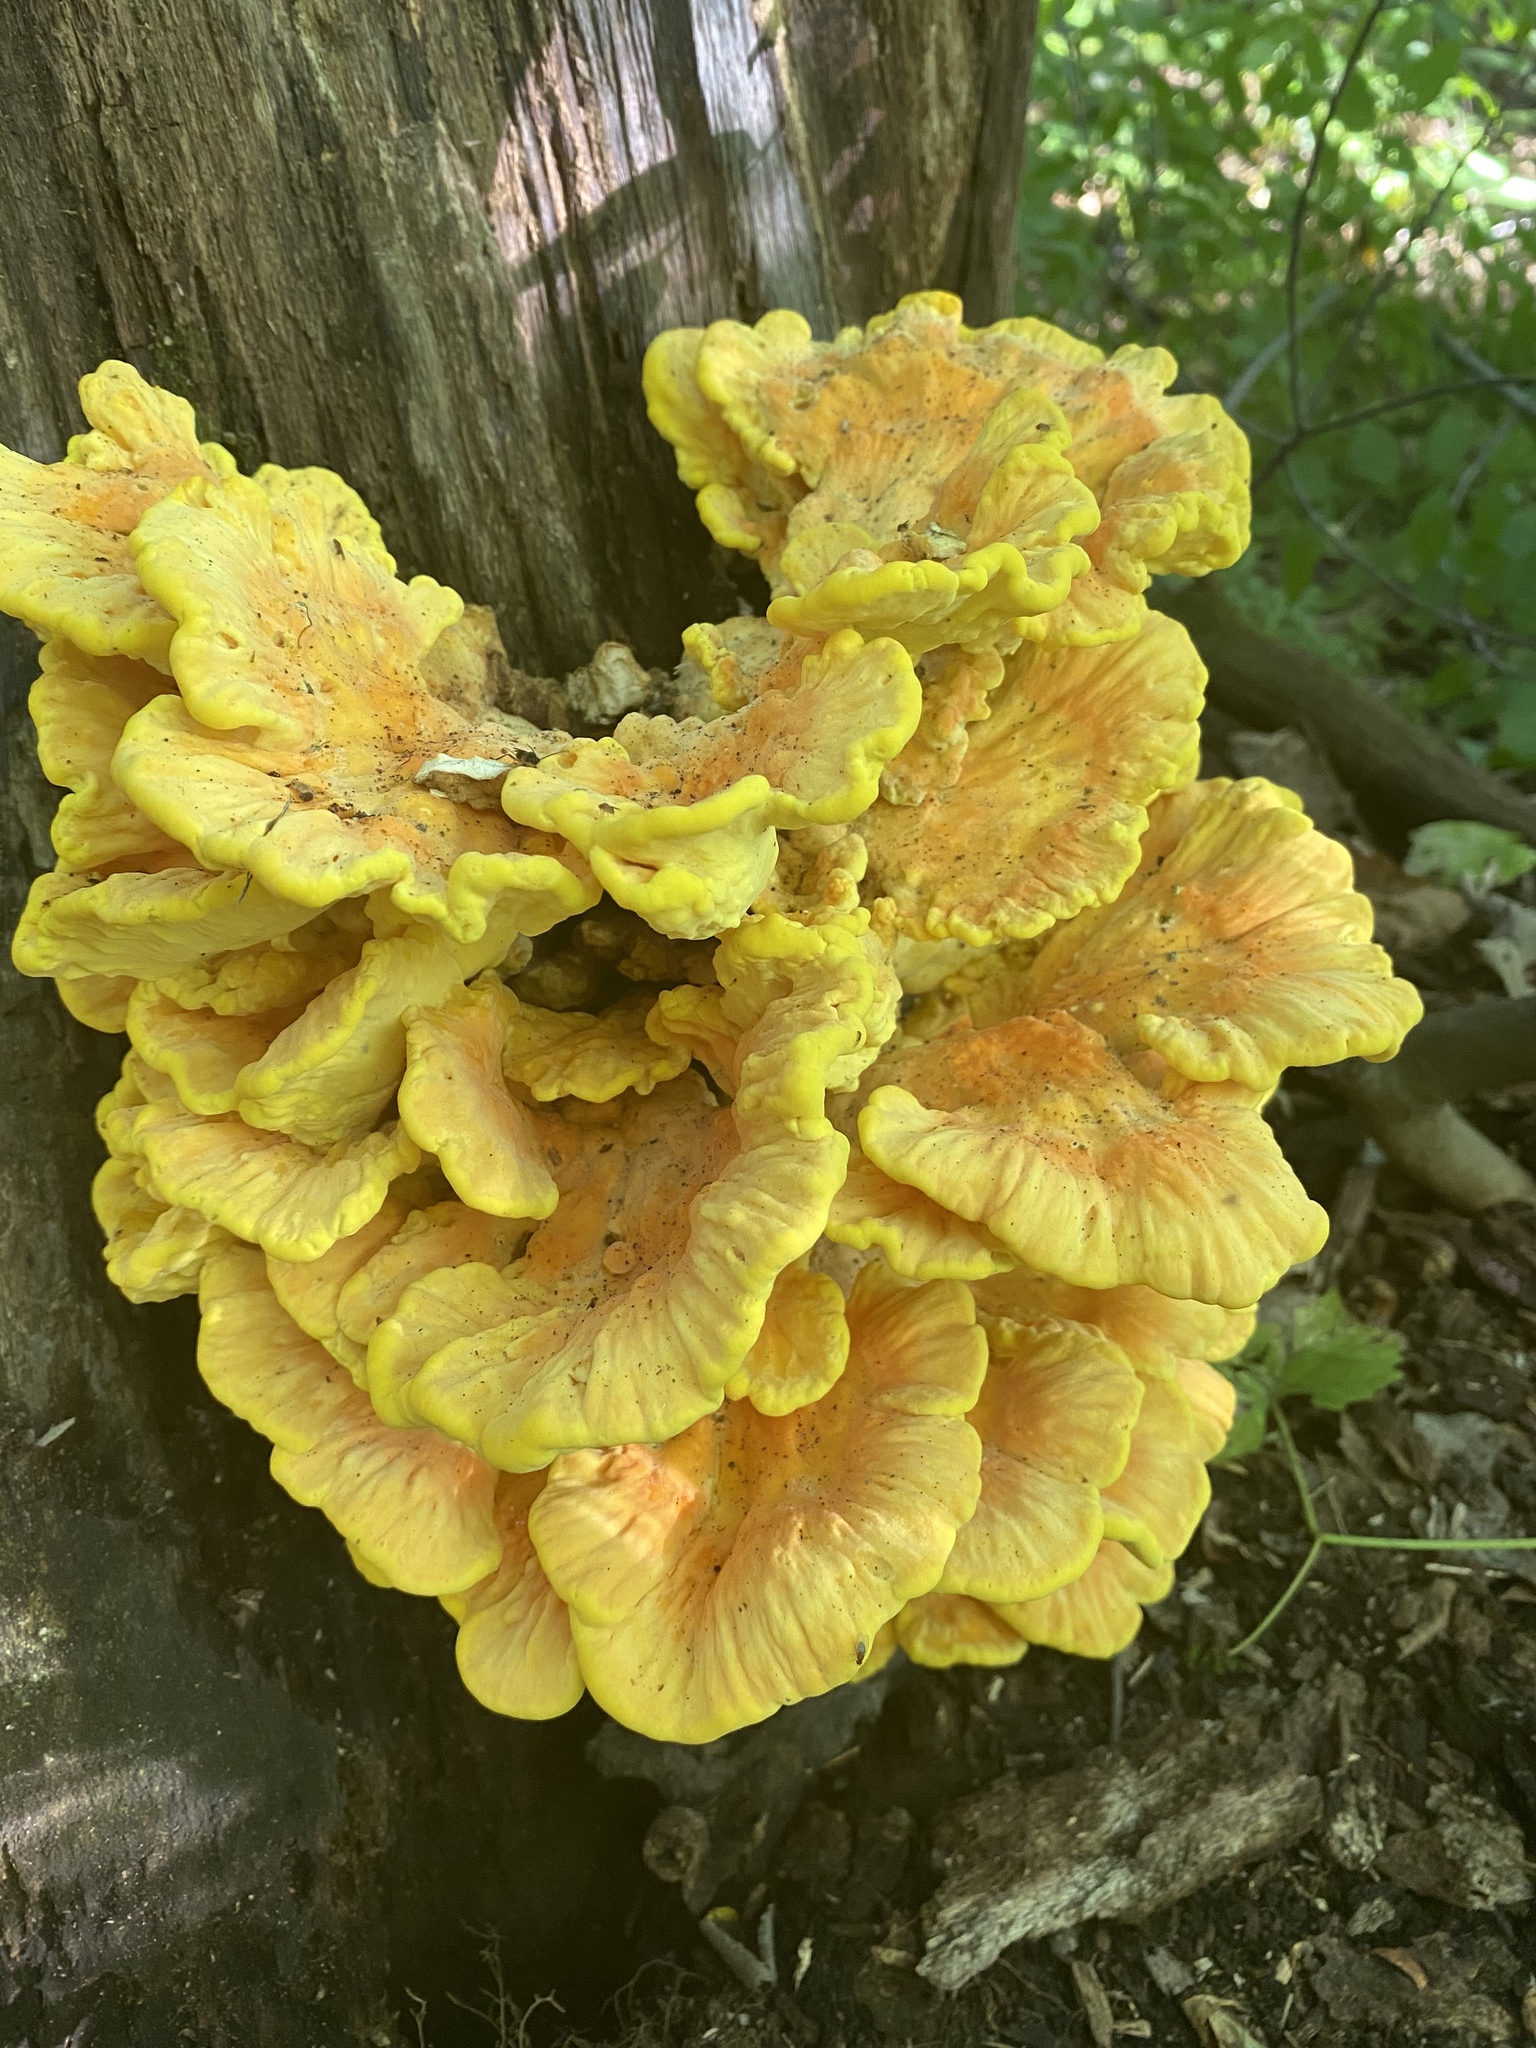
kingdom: Fungi
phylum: Basidiomycota
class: Agaricomycetes
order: Polyporales
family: Laetiporaceae
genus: Laetiporus
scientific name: Laetiporus sulphureus
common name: Chicken of the woods
